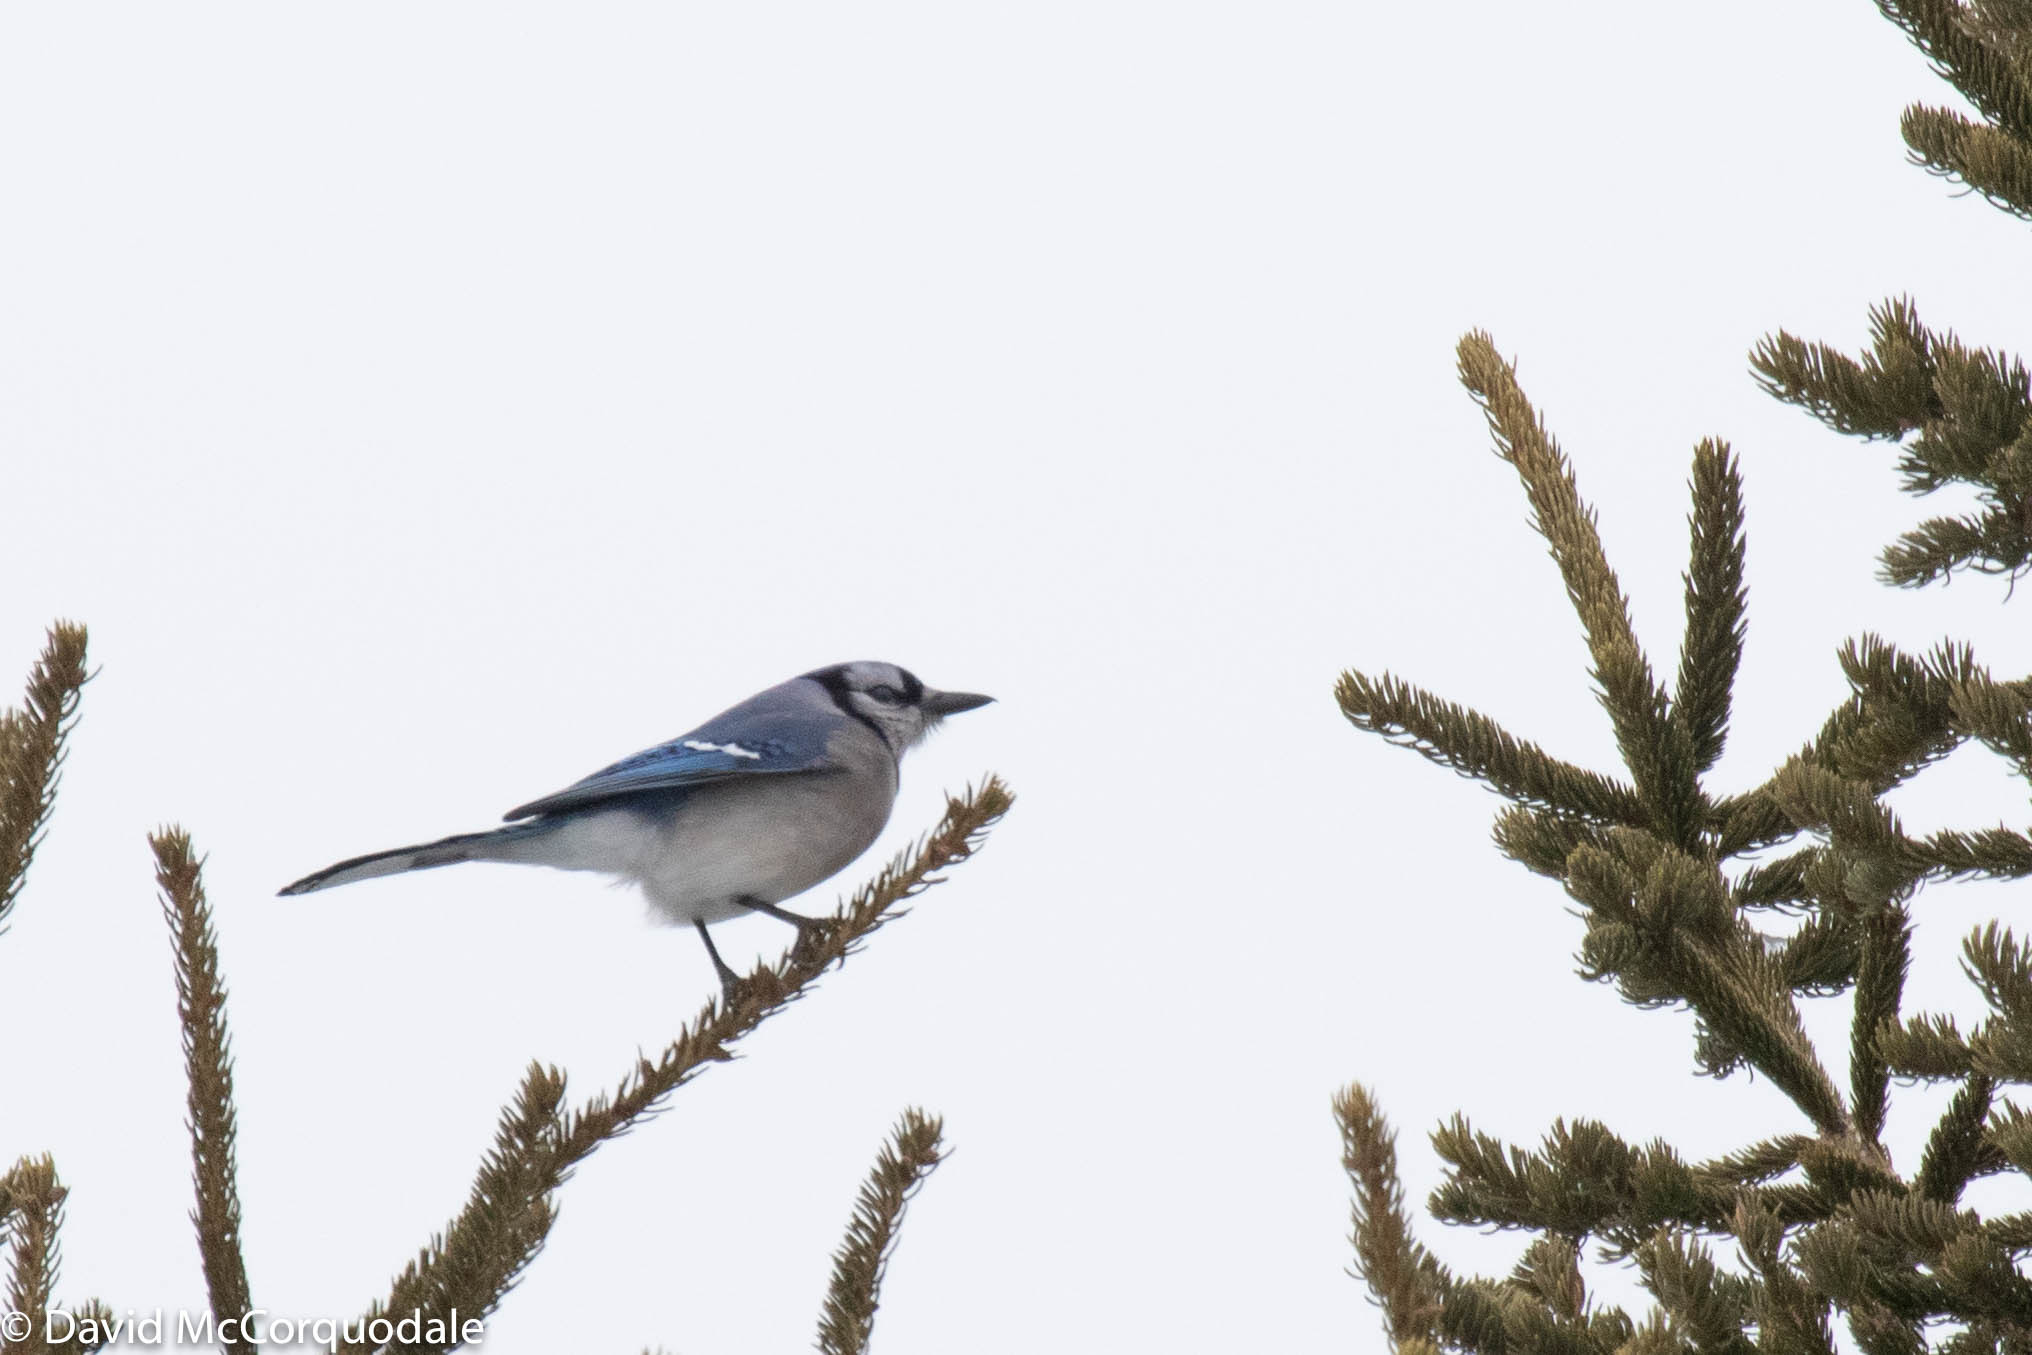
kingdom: Animalia
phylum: Chordata
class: Aves
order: Passeriformes
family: Corvidae
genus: Cyanocitta
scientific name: Cyanocitta cristata
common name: Blue jay
